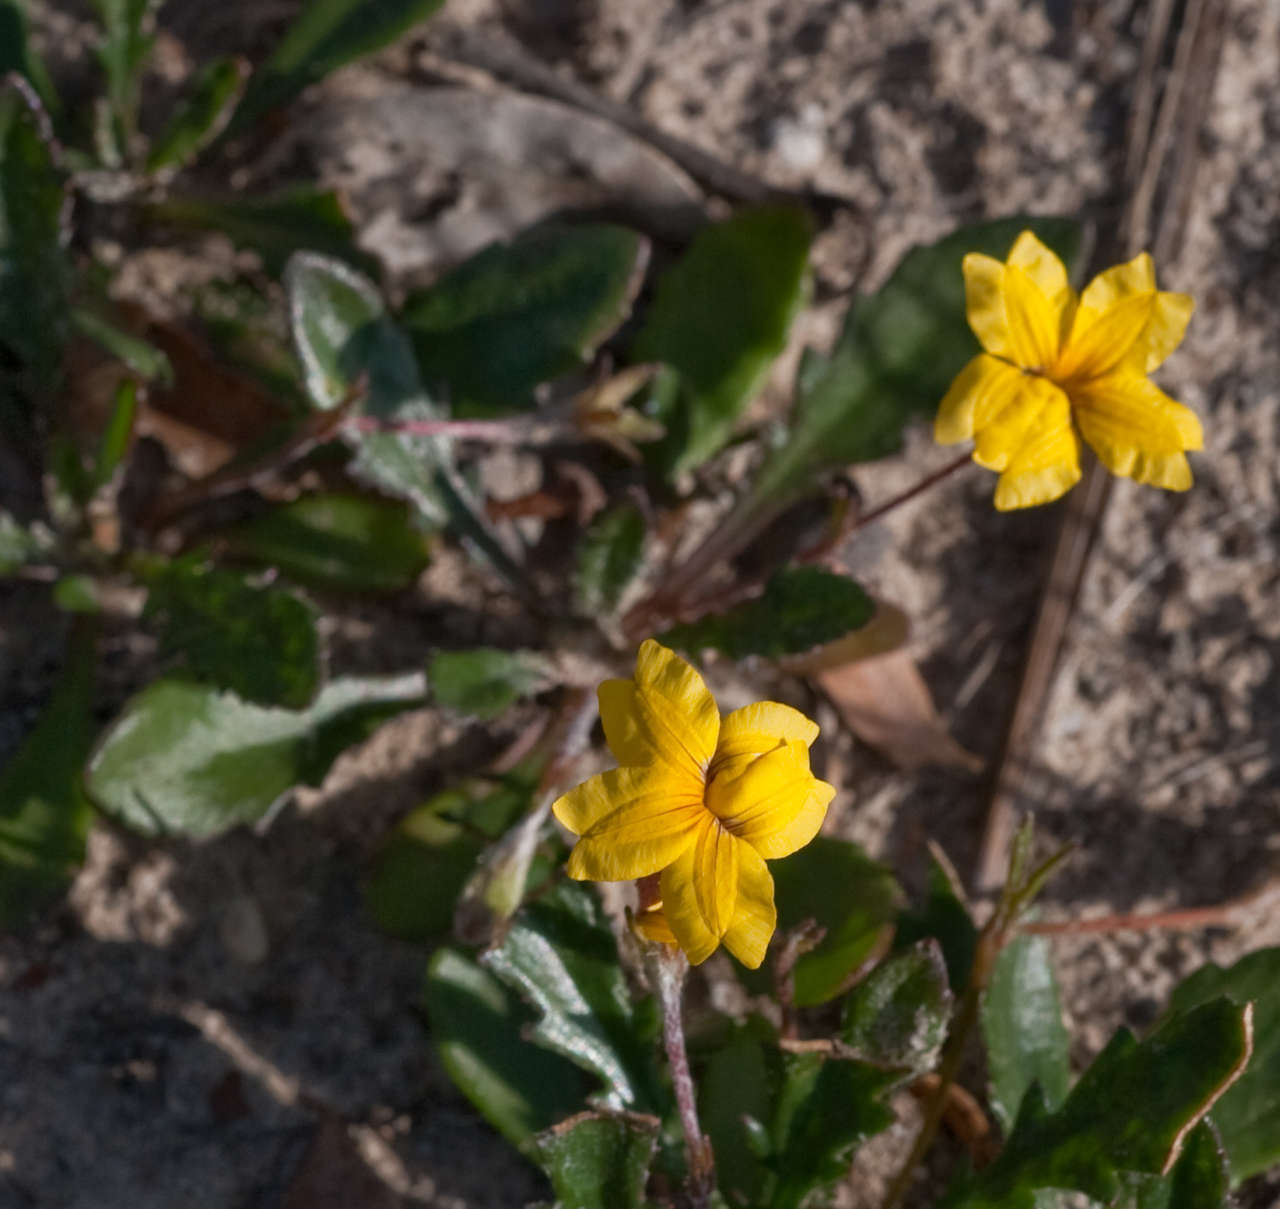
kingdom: Plantae
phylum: Tracheophyta
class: Magnoliopsida
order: Asterales
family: Goodeniaceae
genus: Goodenia
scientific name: Goodenia geniculata
